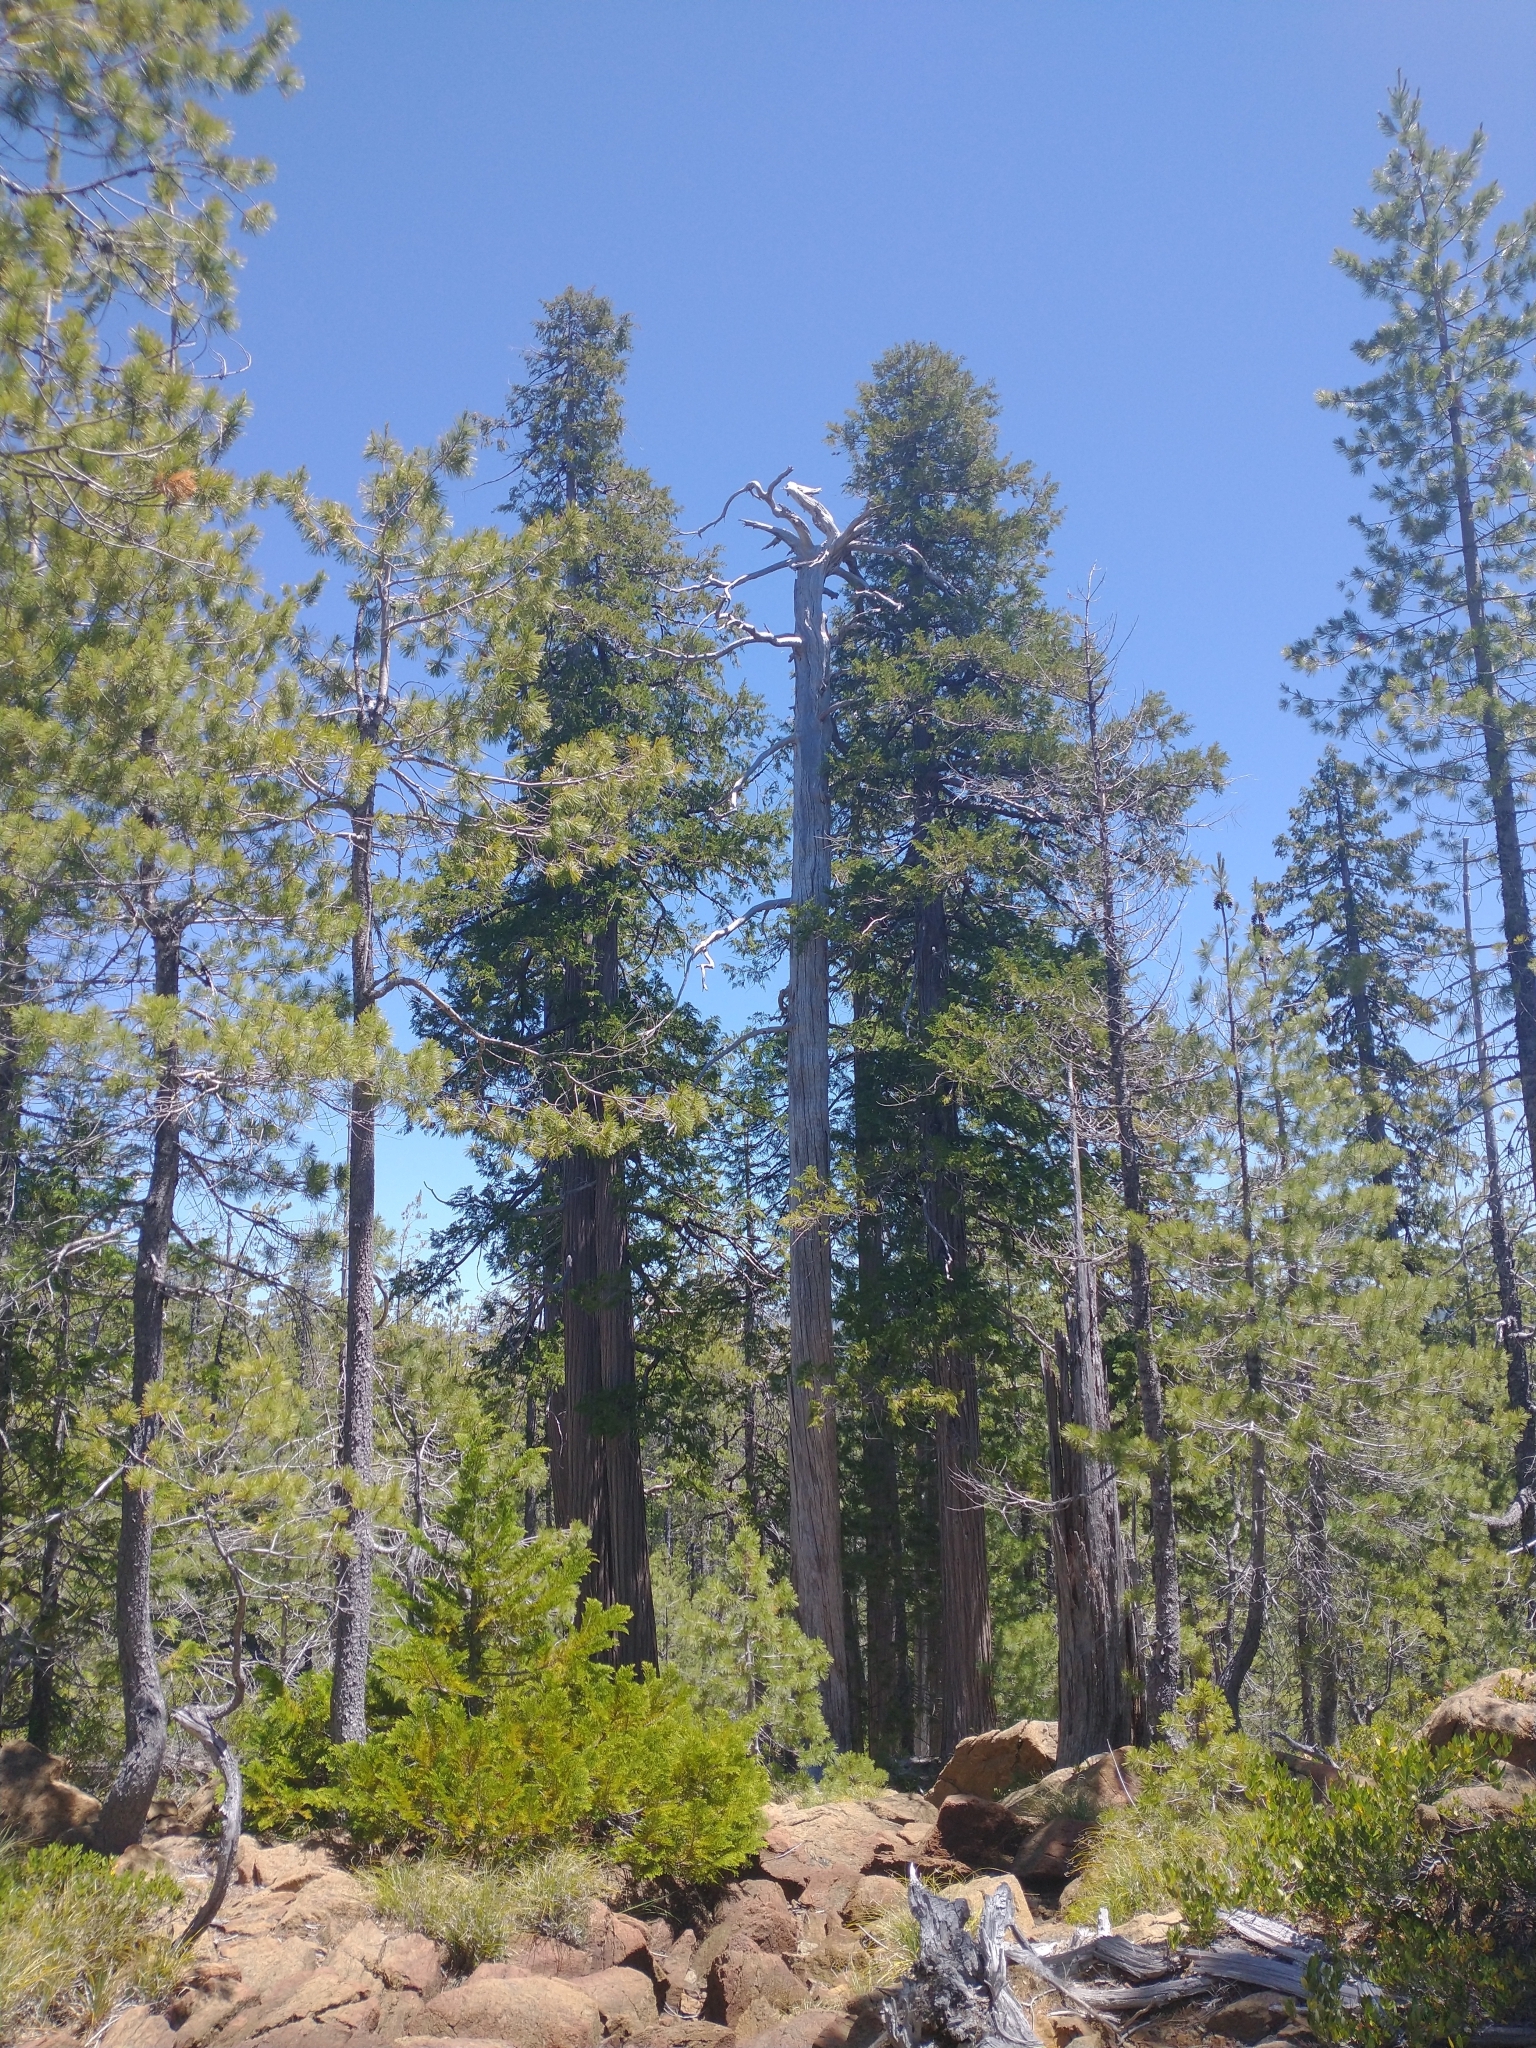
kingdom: Plantae
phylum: Tracheophyta
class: Pinopsida
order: Pinales
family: Cupressaceae
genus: Chamaecyparis
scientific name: Chamaecyparis lawsoniana
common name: Lawson's cypress
